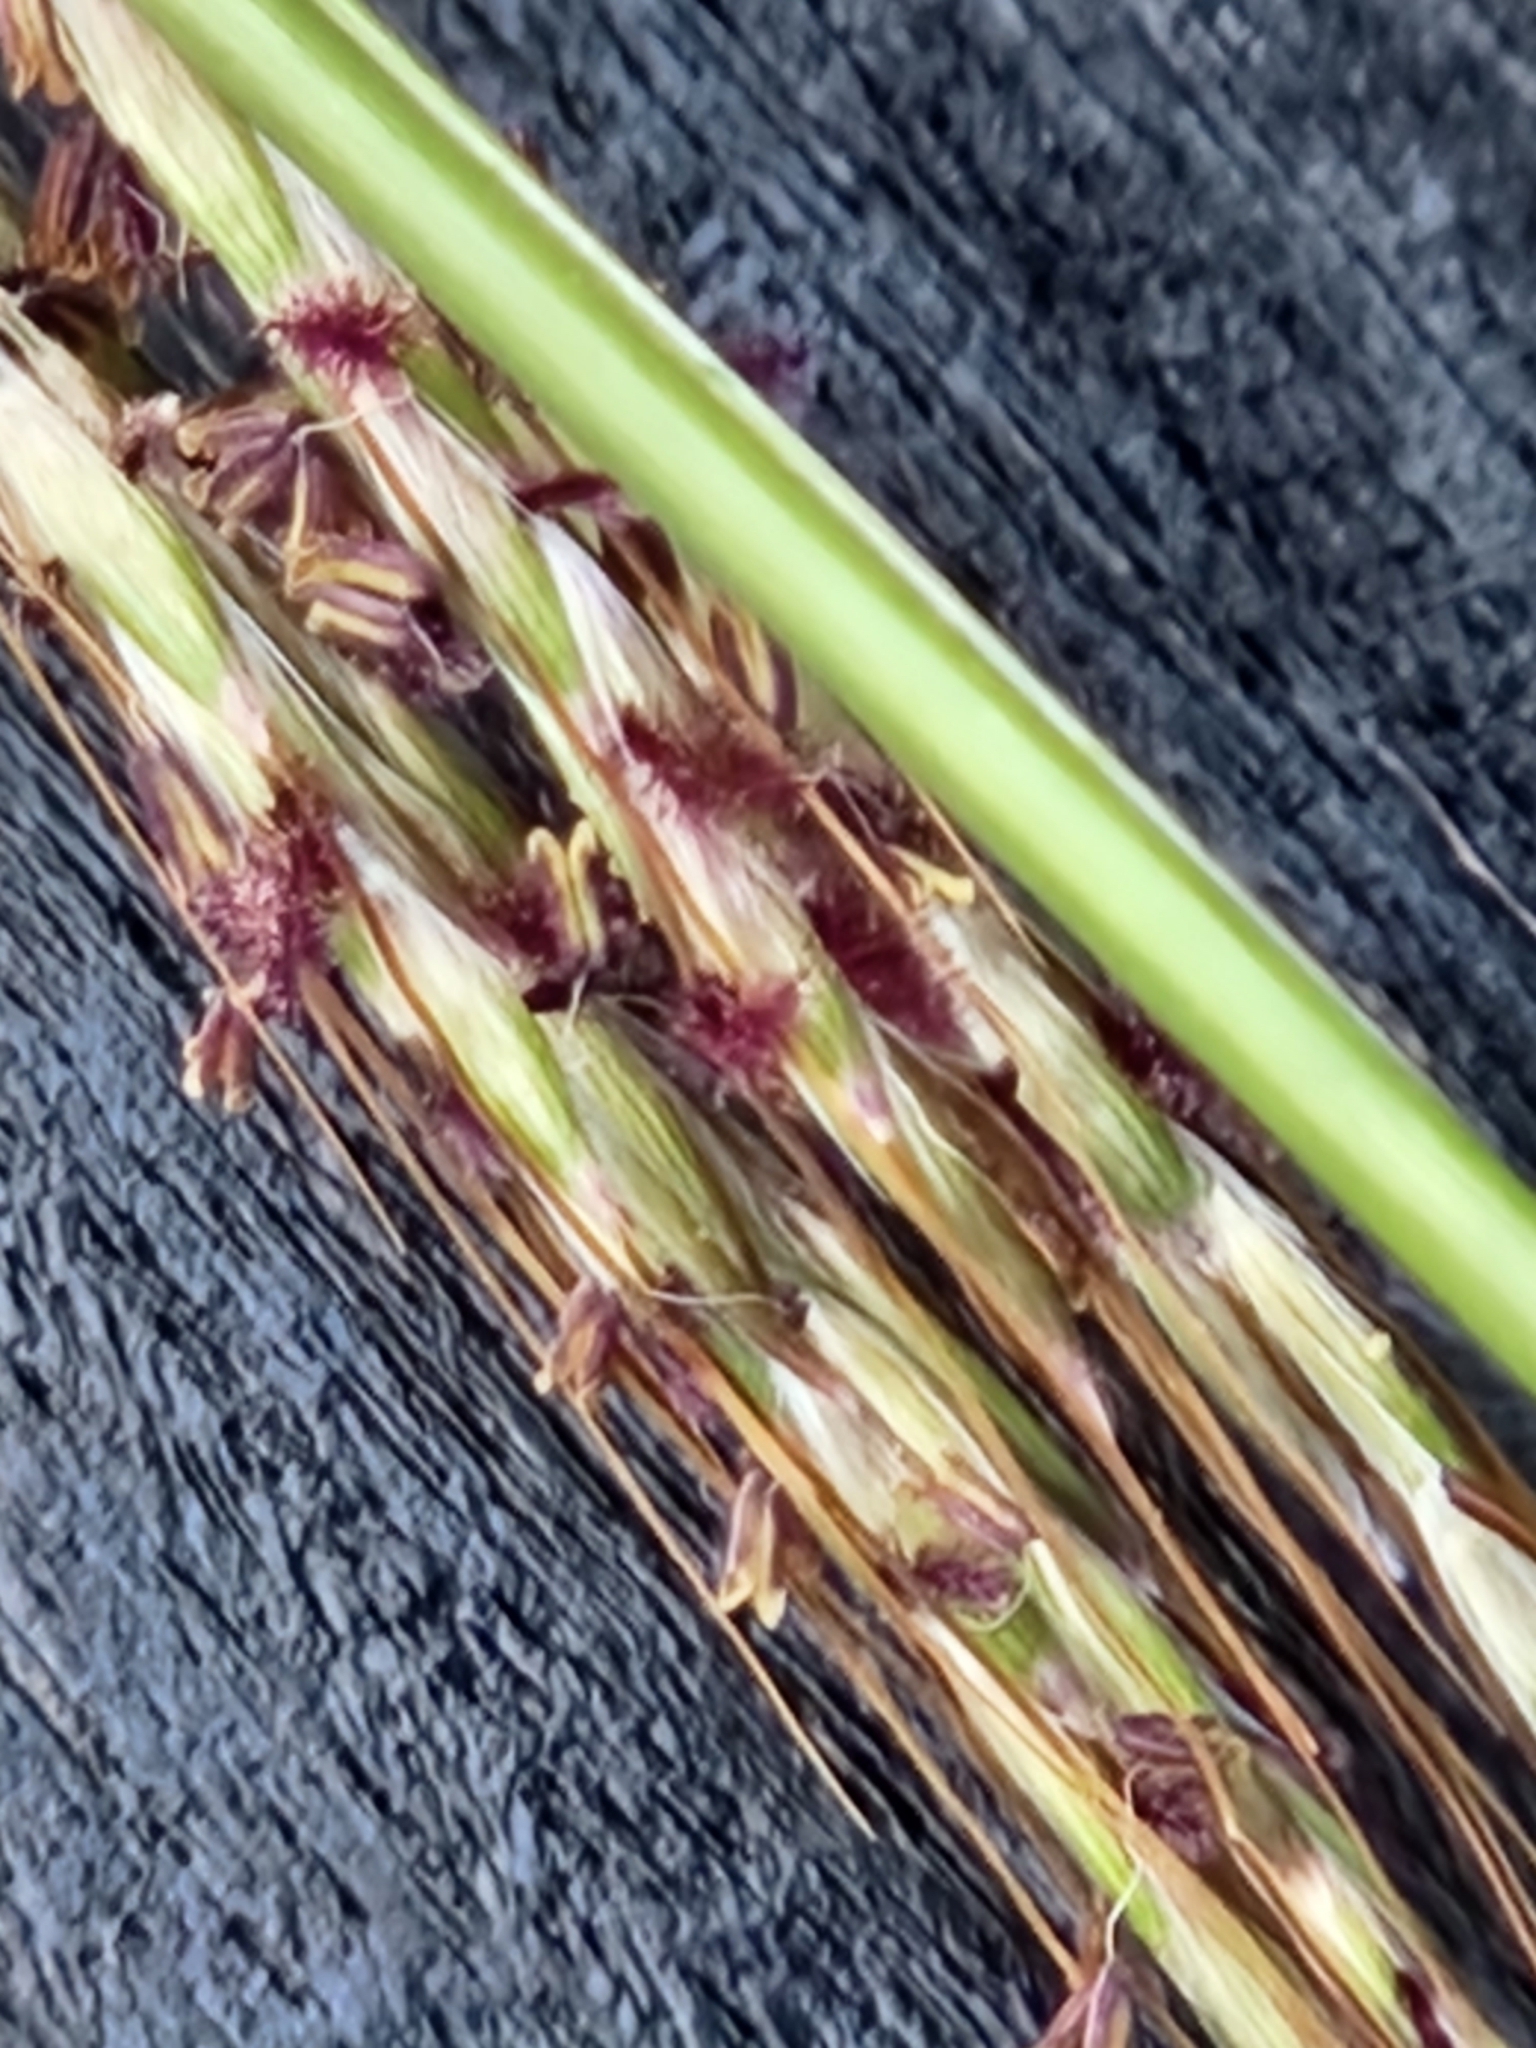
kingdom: Plantae
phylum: Tracheophyta
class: Liliopsida
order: Poales
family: Poaceae
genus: Bothriochloa
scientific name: Bothriochloa ischaemum
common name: Yellow bluestem
